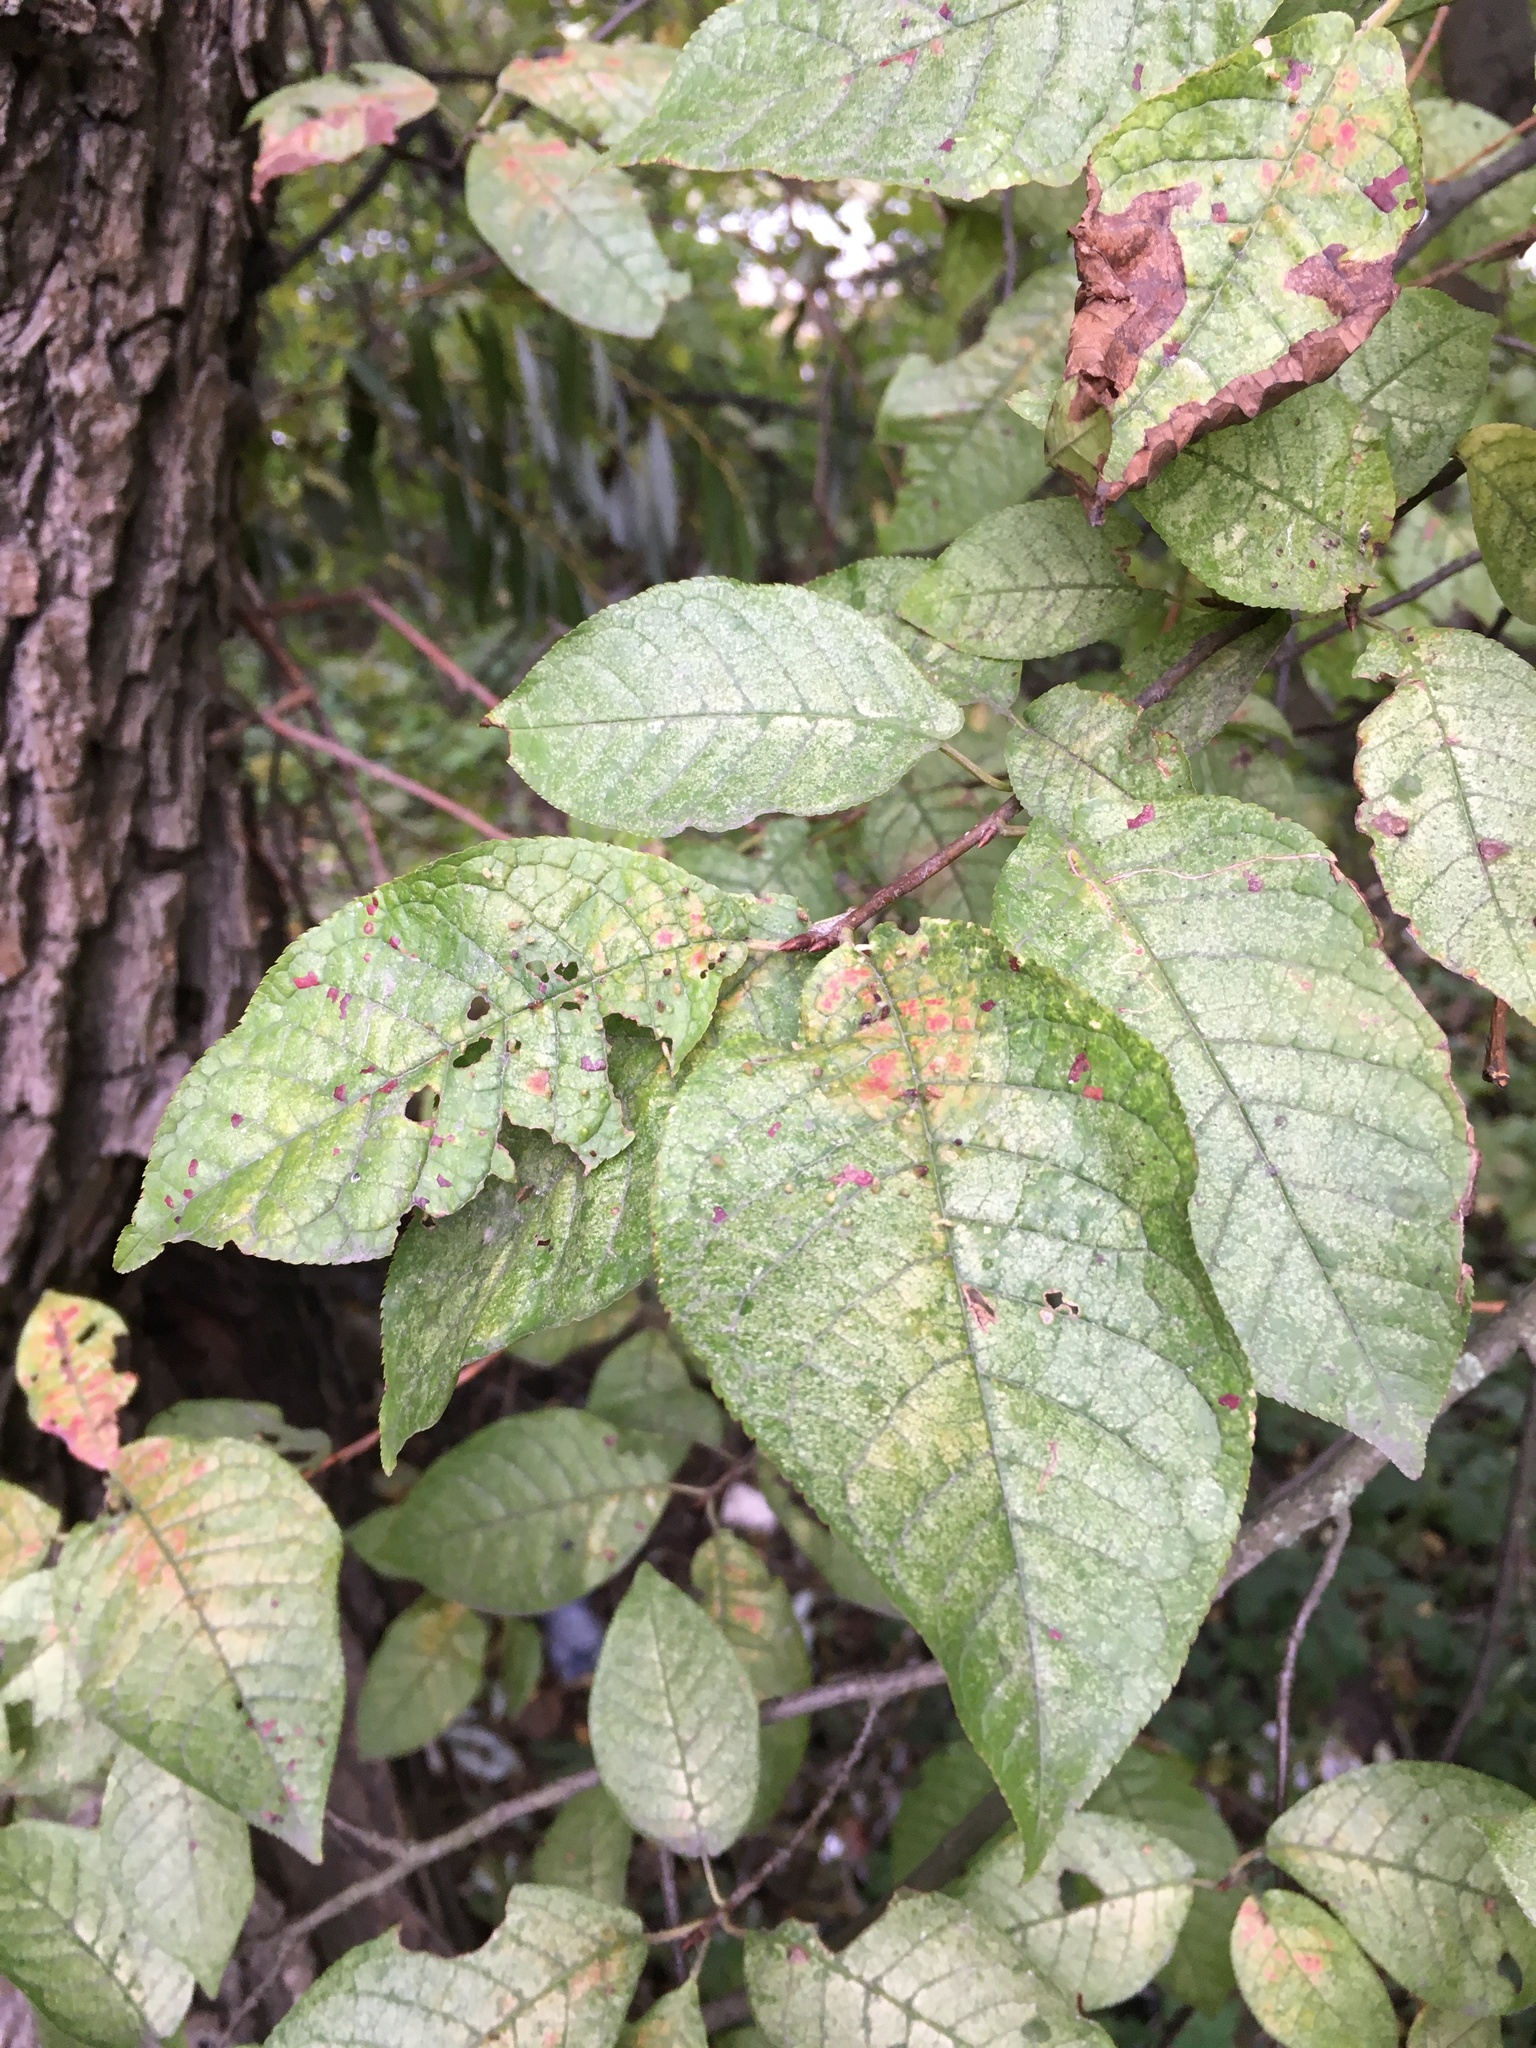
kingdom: Plantae
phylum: Tracheophyta
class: Magnoliopsida
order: Rosales
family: Rosaceae
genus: Prunus
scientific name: Prunus padus
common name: Bird cherry
